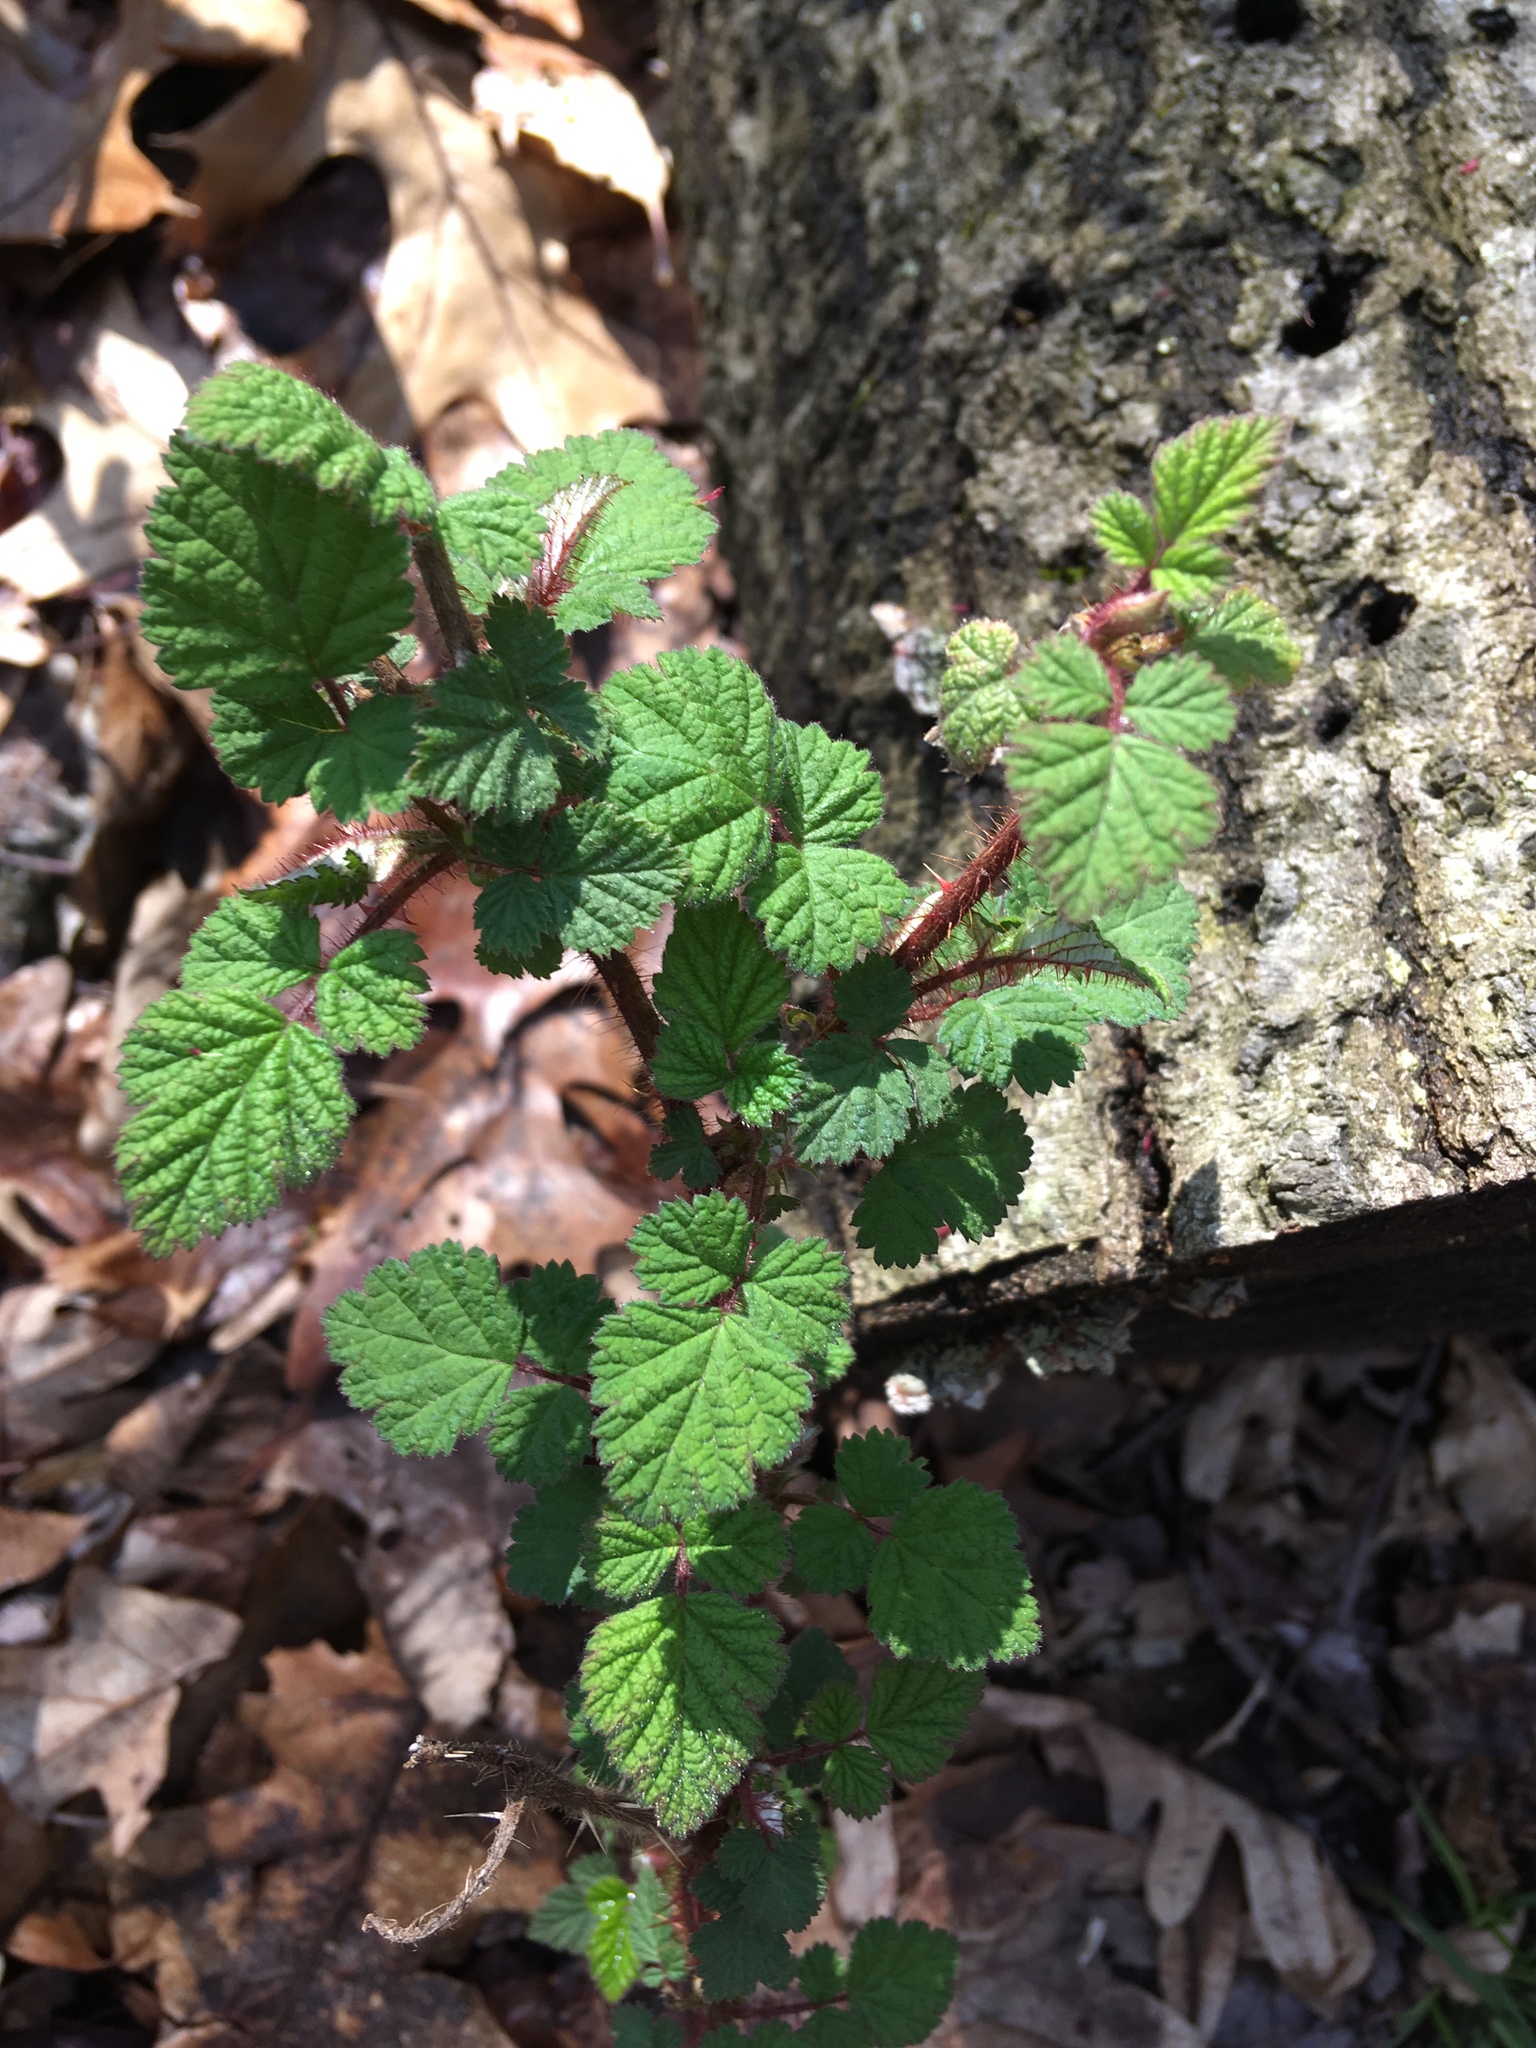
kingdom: Plantae
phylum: Tracheophyta
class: Magnoliopsida
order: Rosales
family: Rosaceae
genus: Rubus
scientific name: Rubus phoenicolasius
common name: Japanese wineberry
